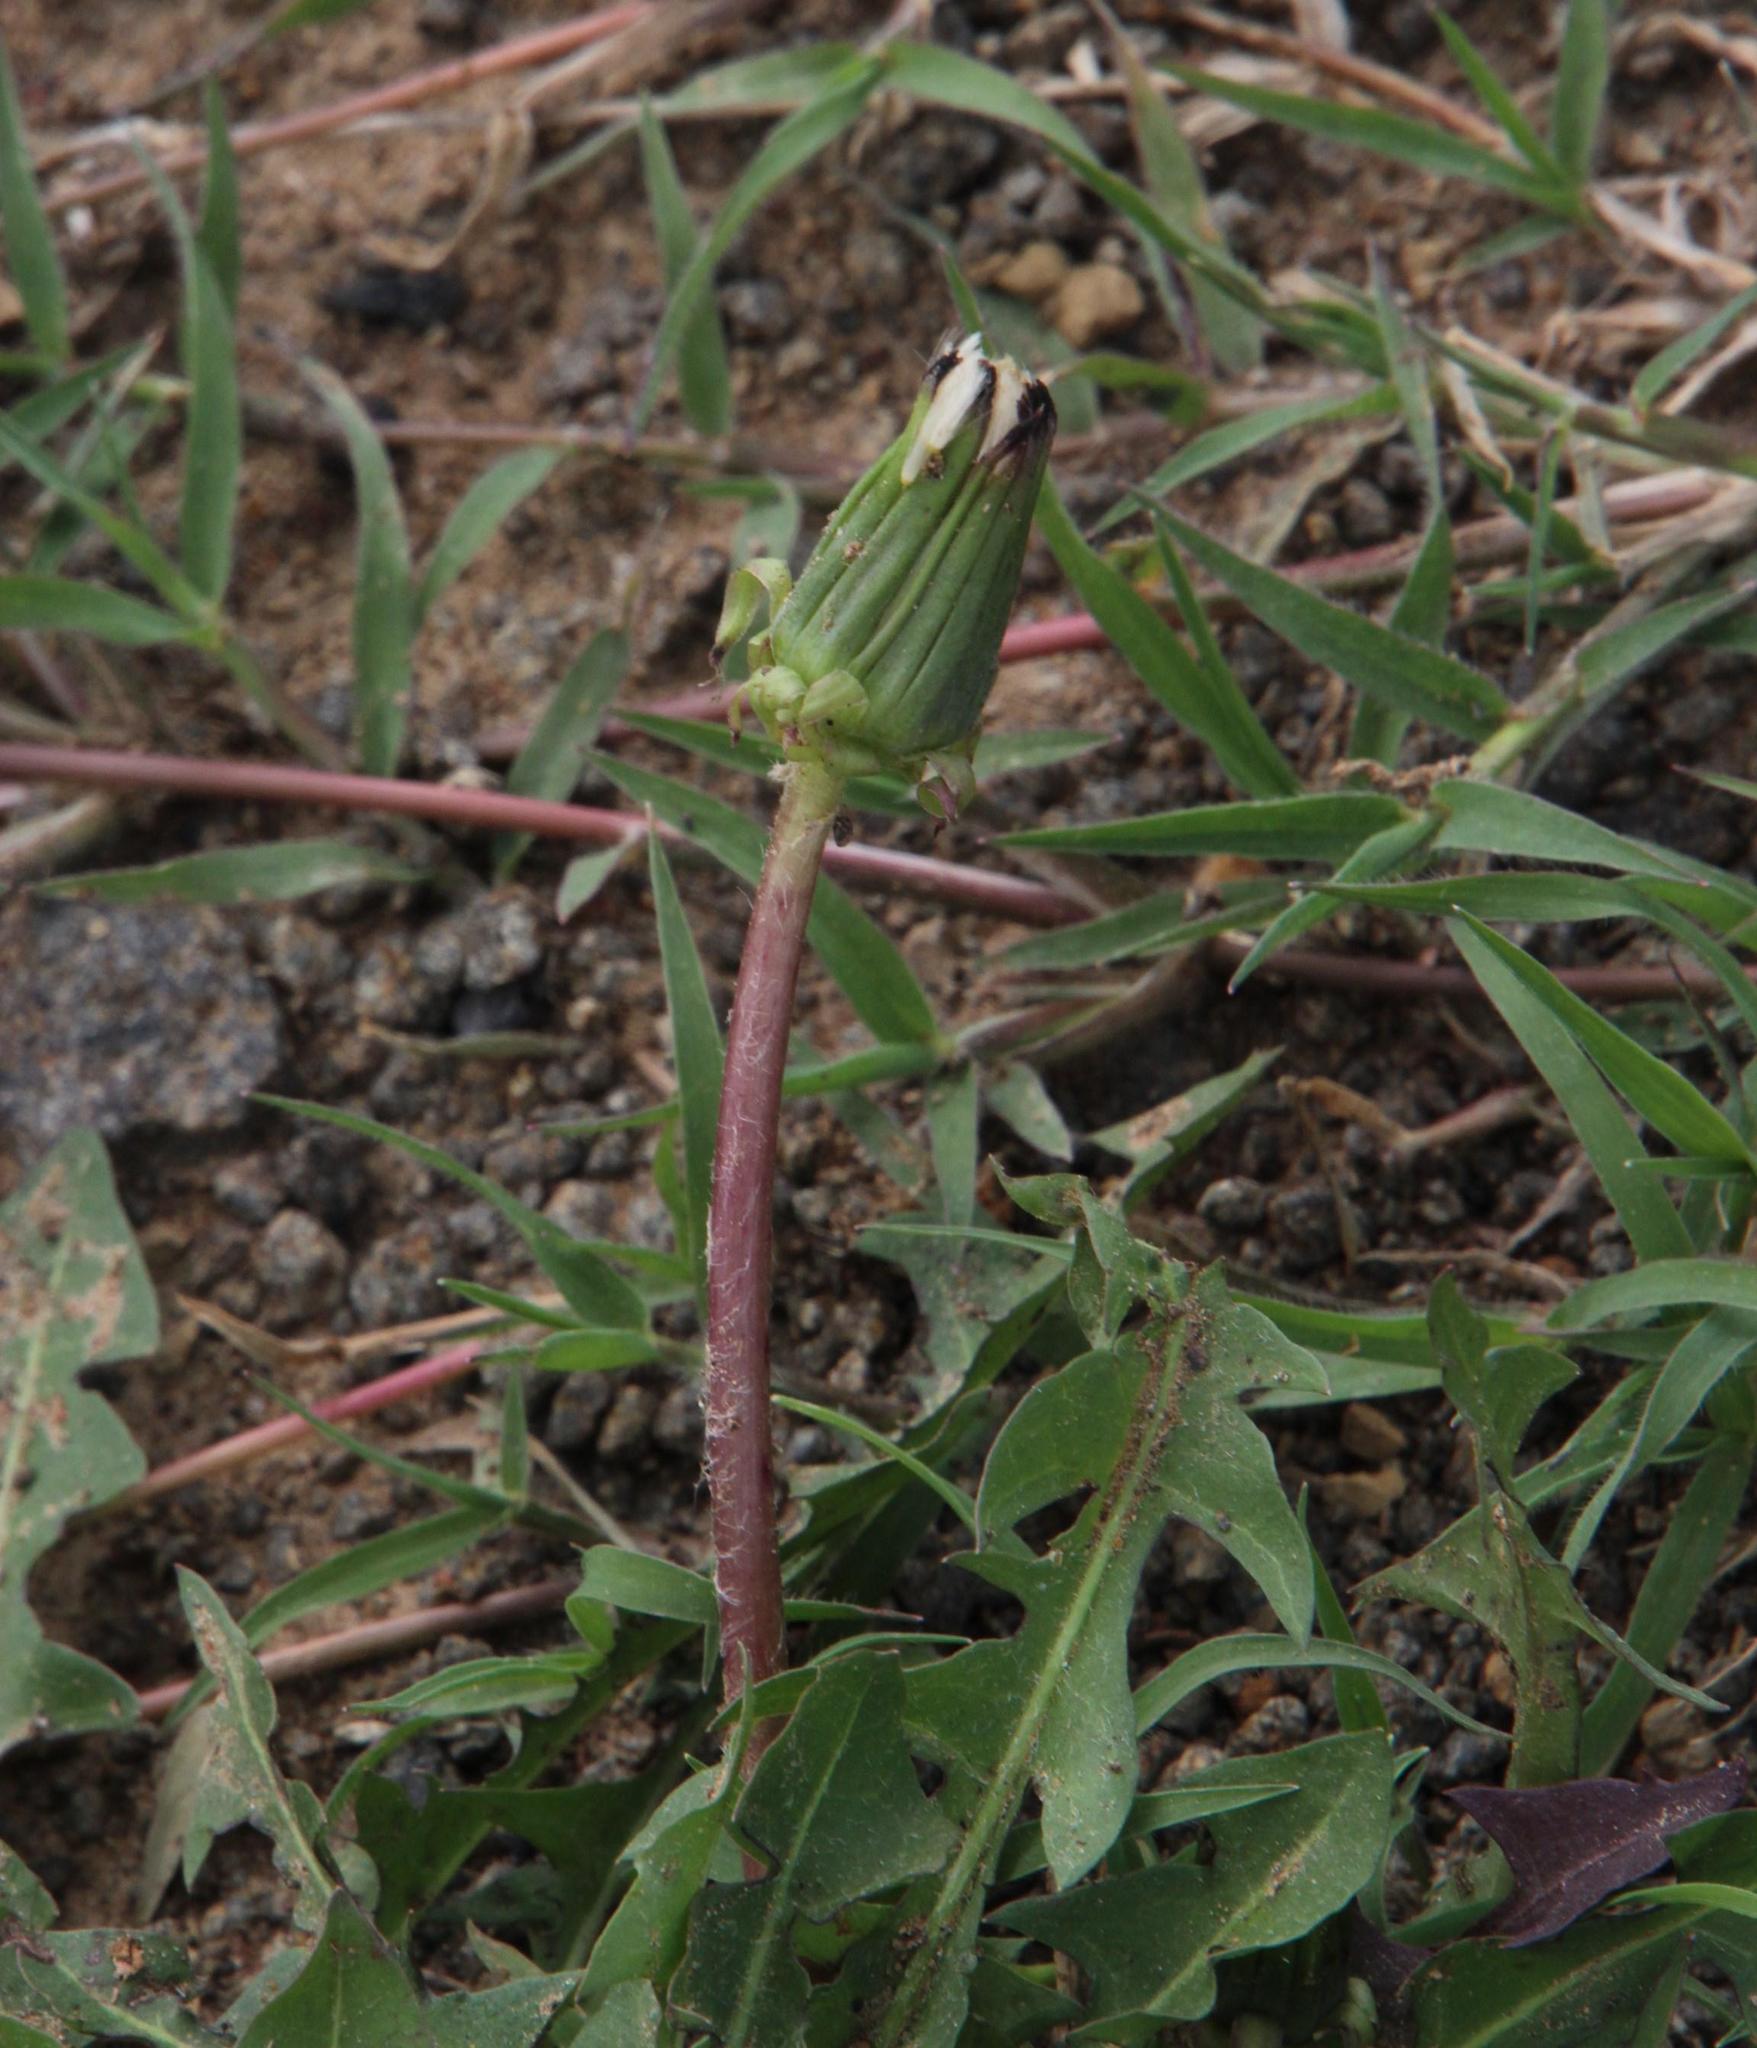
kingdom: Plantae
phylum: Tracheophyta
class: Magnoliopsida
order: Asterales
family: Asteraceae
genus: Taraxacum
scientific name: Taraxacum officinale
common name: Common dandelion
